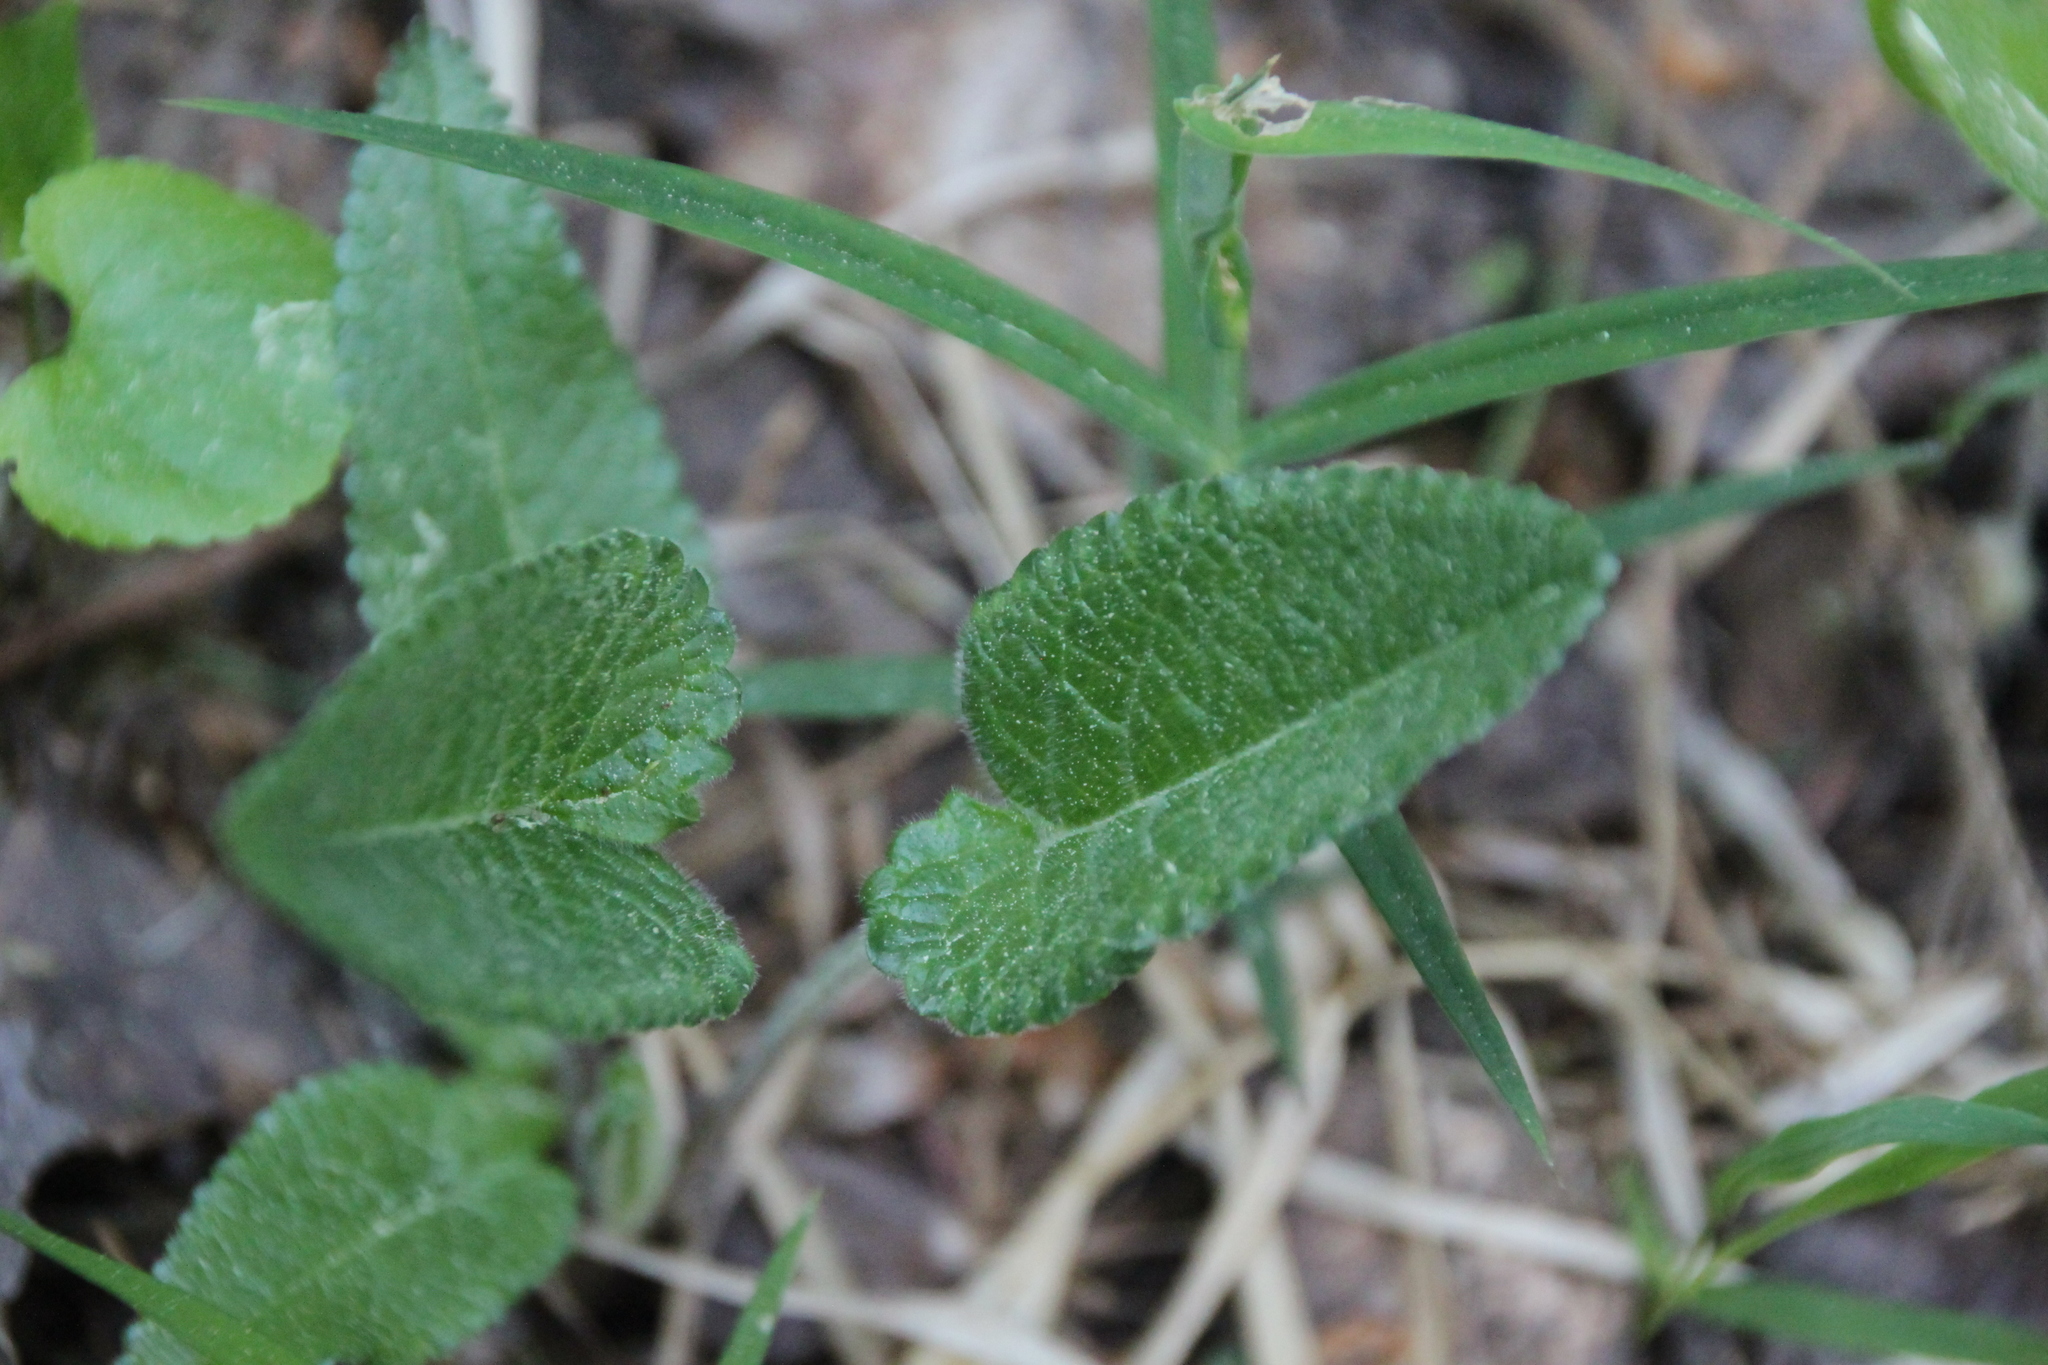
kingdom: Plantae
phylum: Tracheophyta
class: Magnoliopsida
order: Lamiales
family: Lamiaceae
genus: Betonica
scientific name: Betonica officinalis
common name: Bishop's-wort
